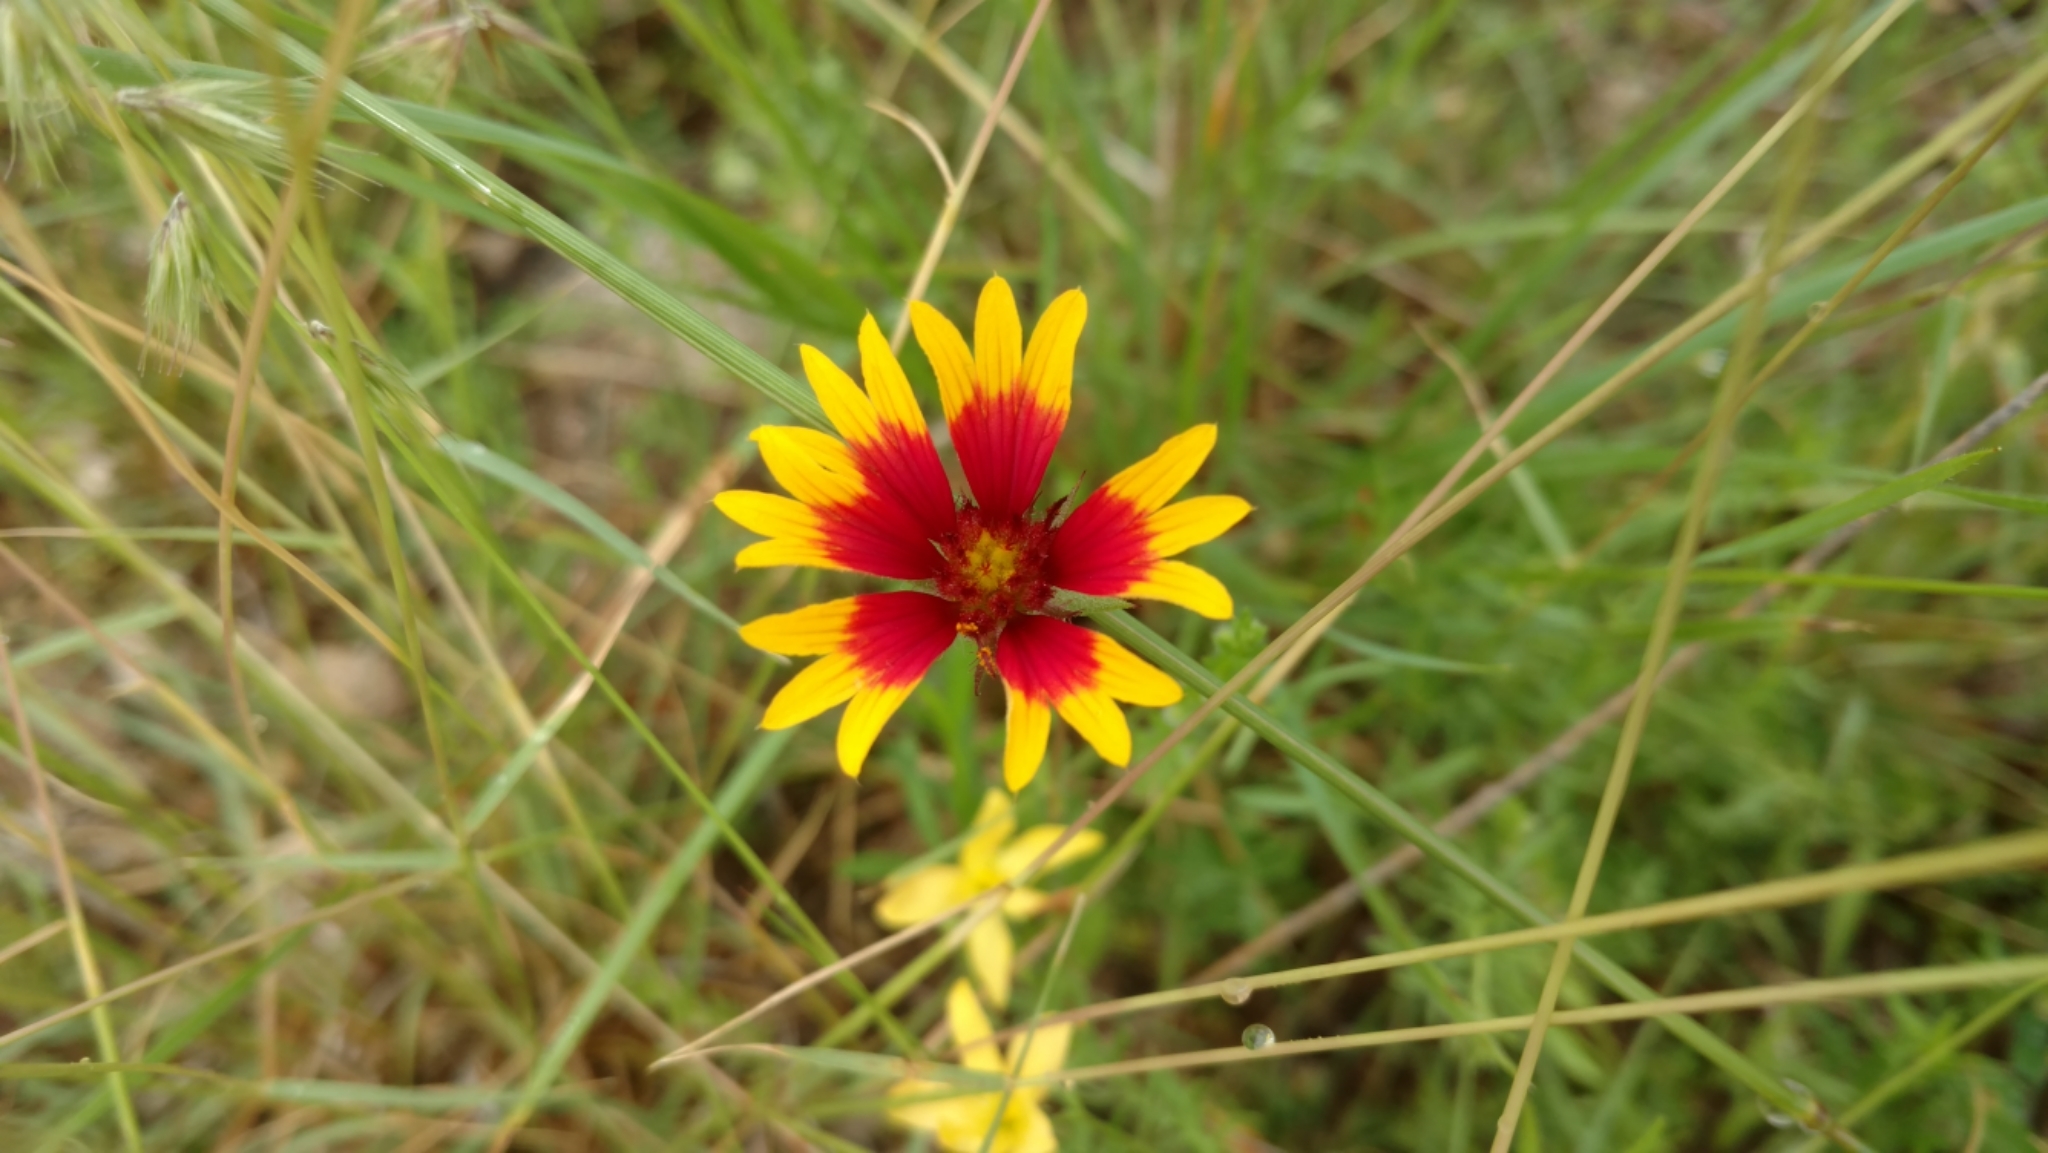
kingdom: Plantae
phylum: Tracheophyta
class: Magnoliopsida
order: Asterales
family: Asteraceae
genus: Gaillardia
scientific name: Gaillardia pulchella
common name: Firewheel
